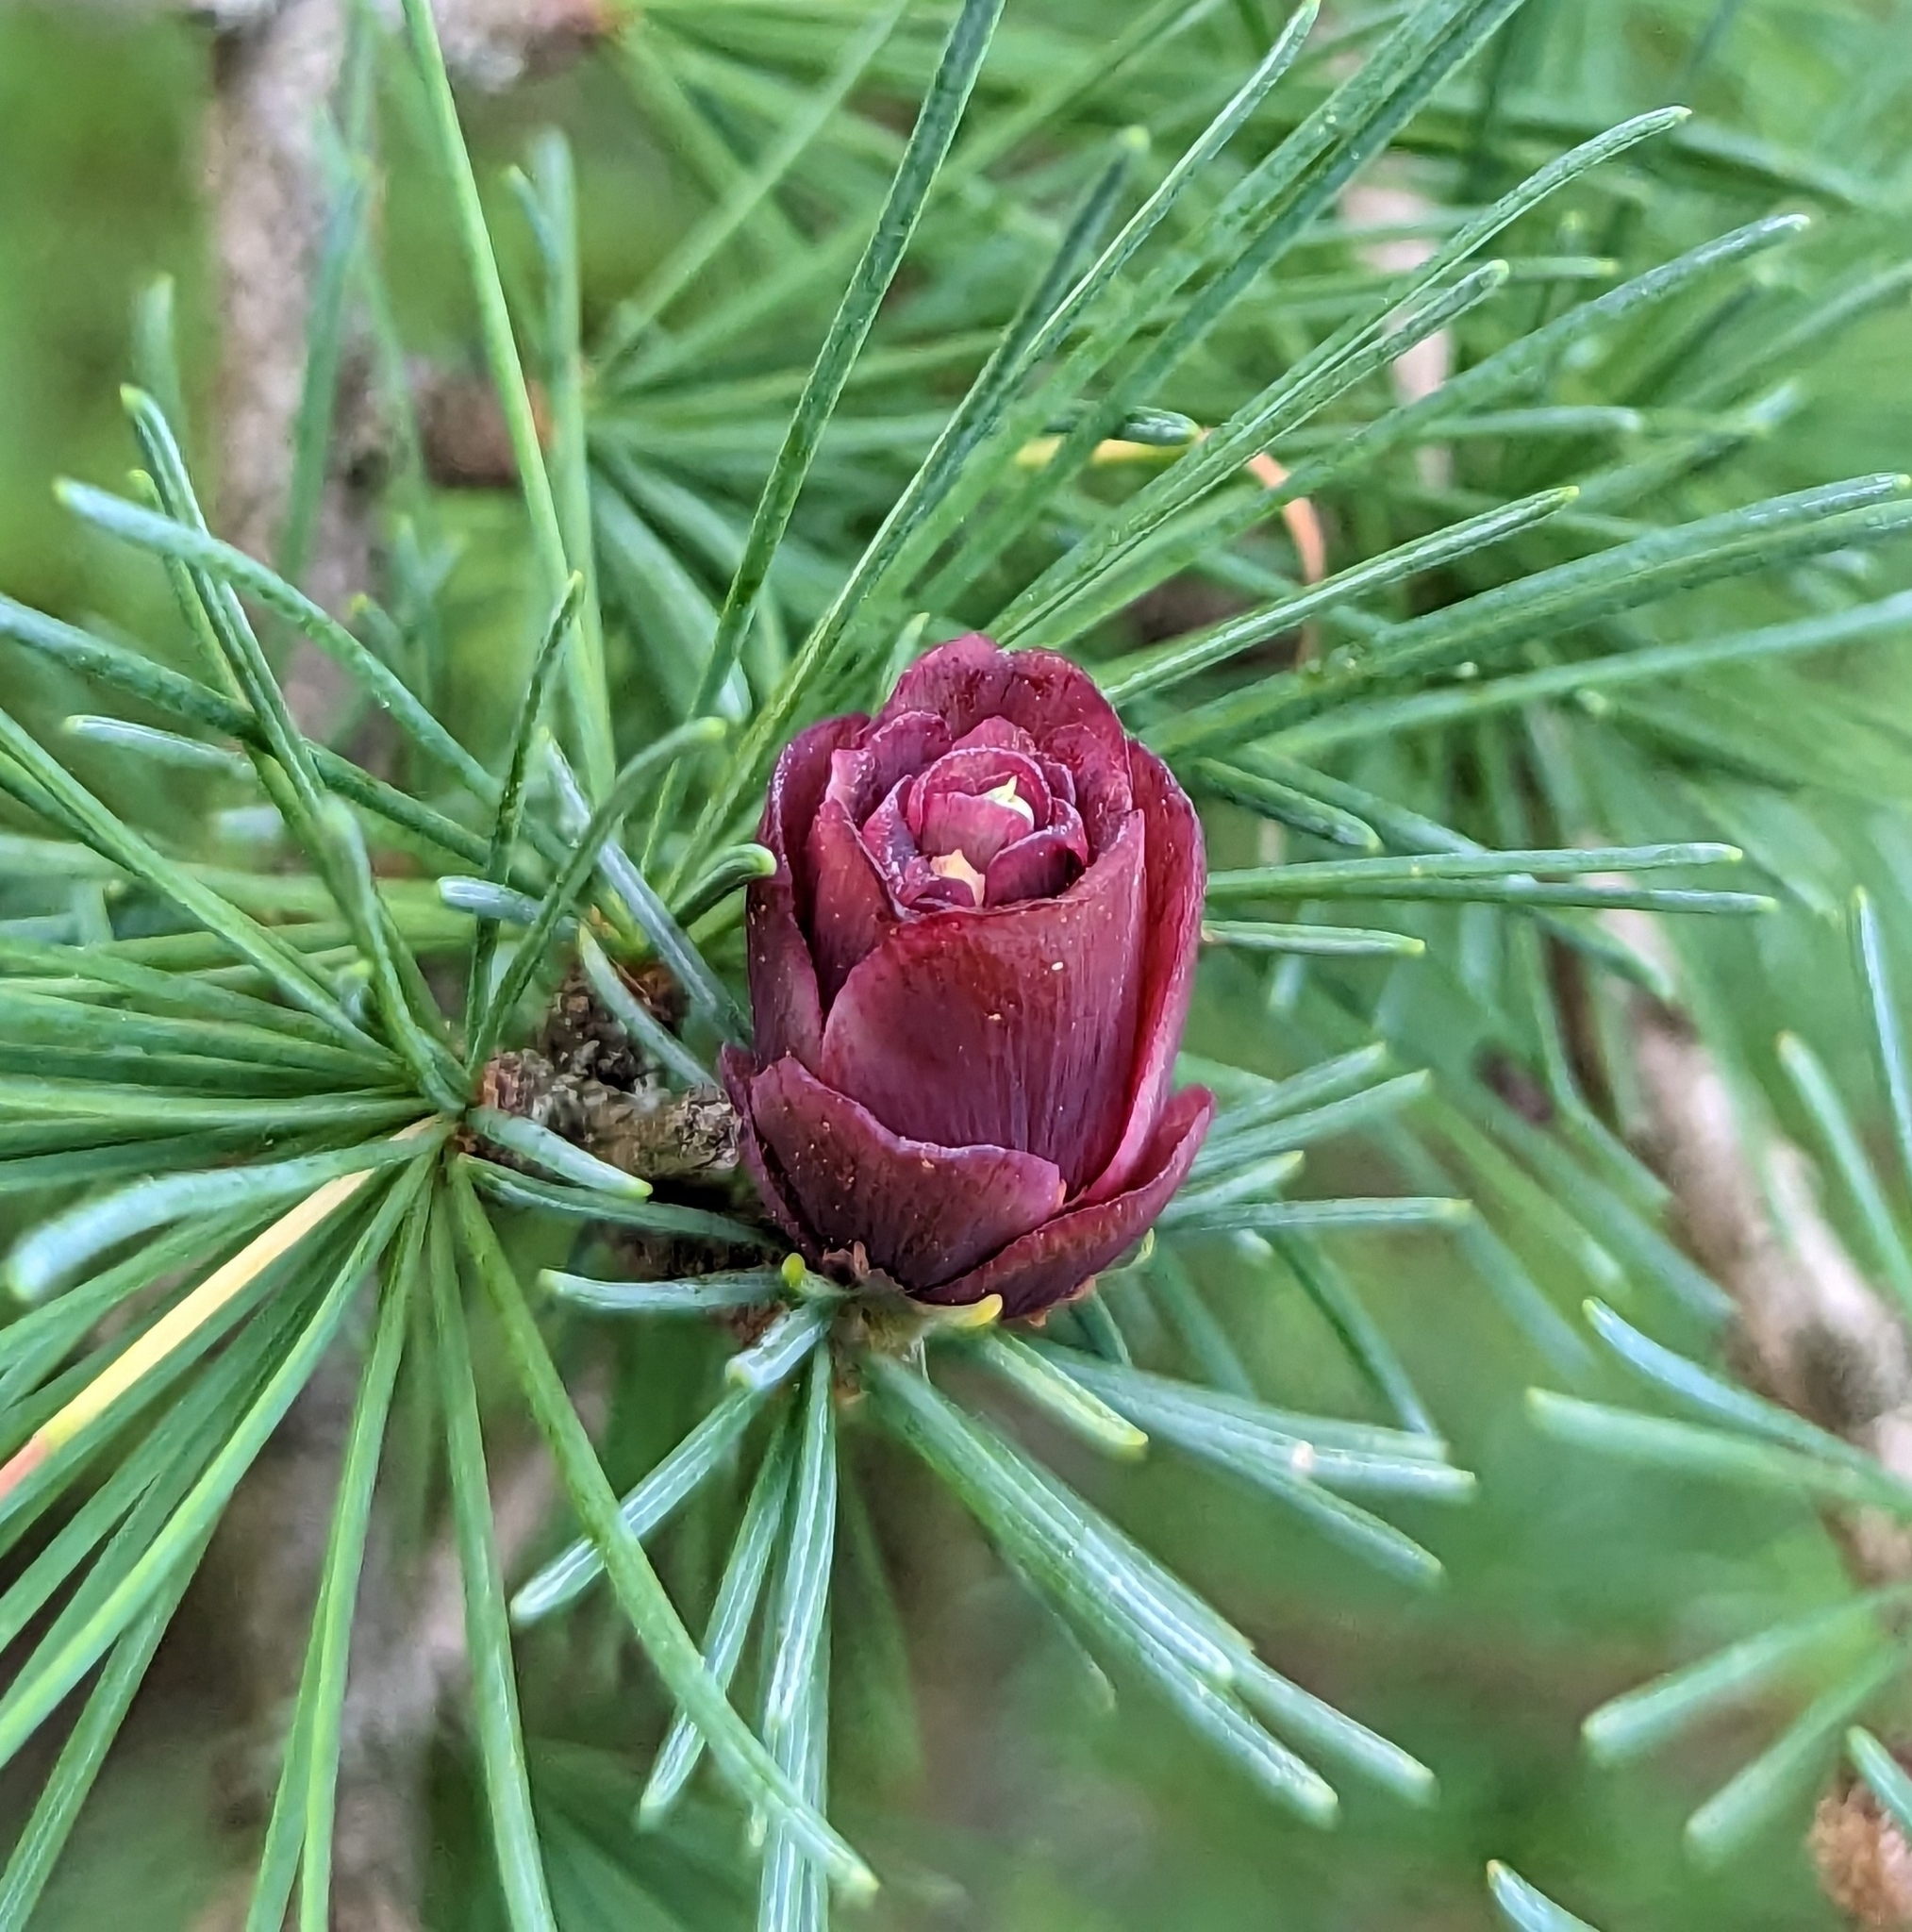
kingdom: Plantae
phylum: Tracheophyta
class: Pinopsida
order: Pinales
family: Pinaceae
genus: Larix
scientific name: Larix laricina
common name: American larch
